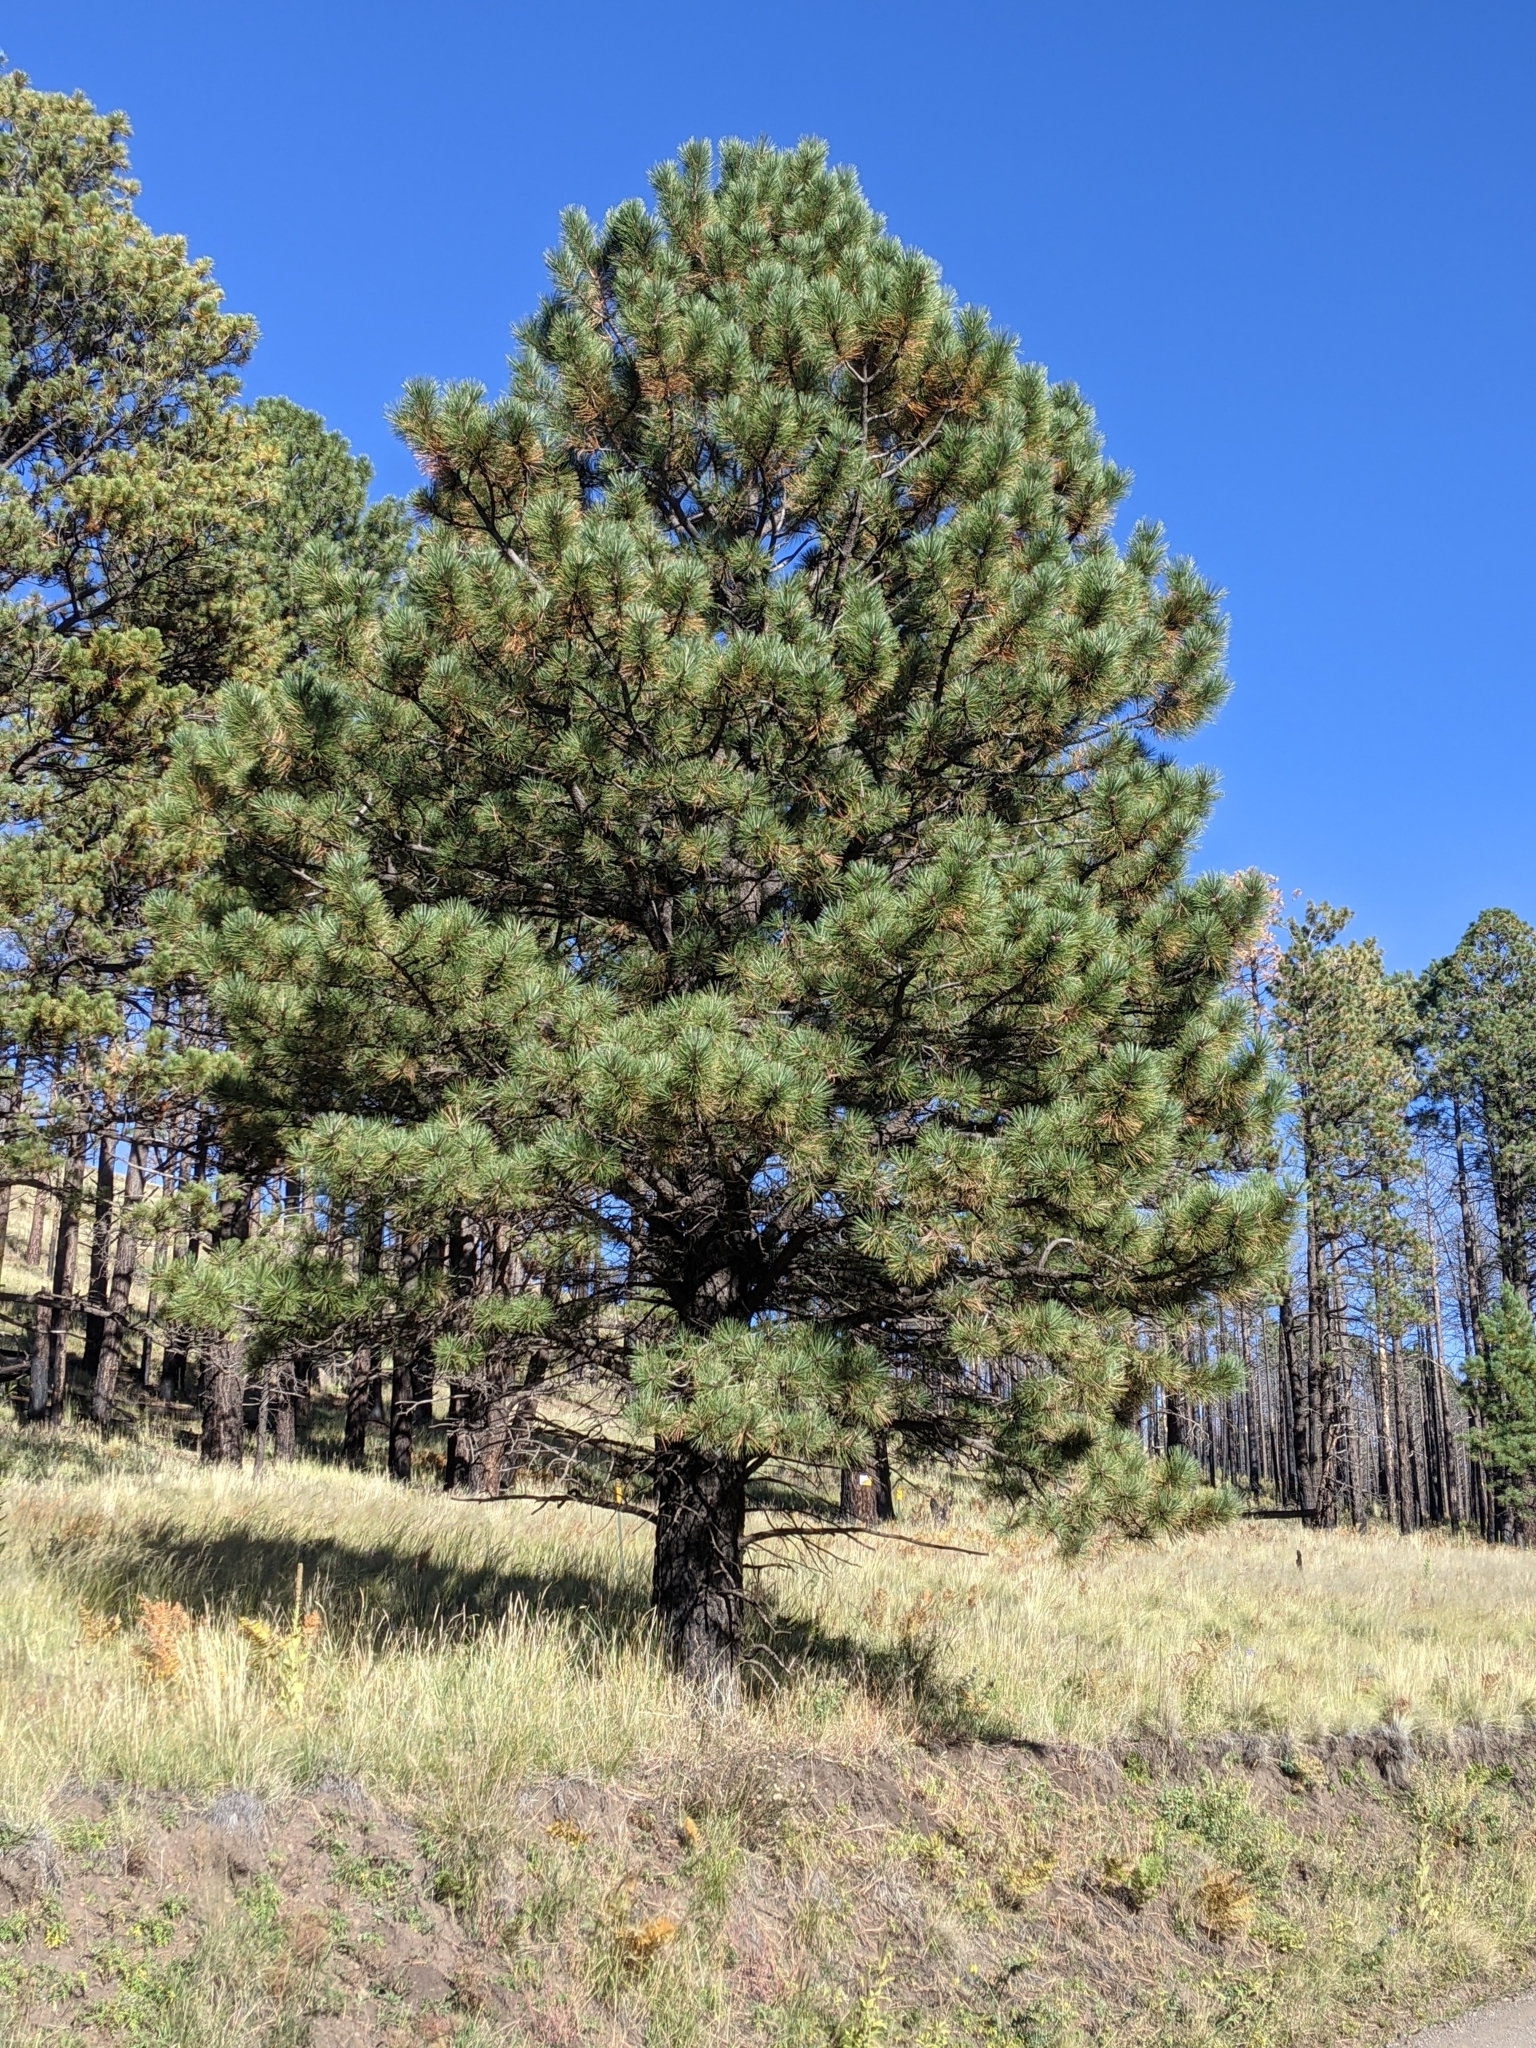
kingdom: Plantae
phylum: Tracheophyta
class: Pinopsida
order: Pinales
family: Pinaceae
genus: Pinus
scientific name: Pinus ponderosa
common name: Western yellow-pine
